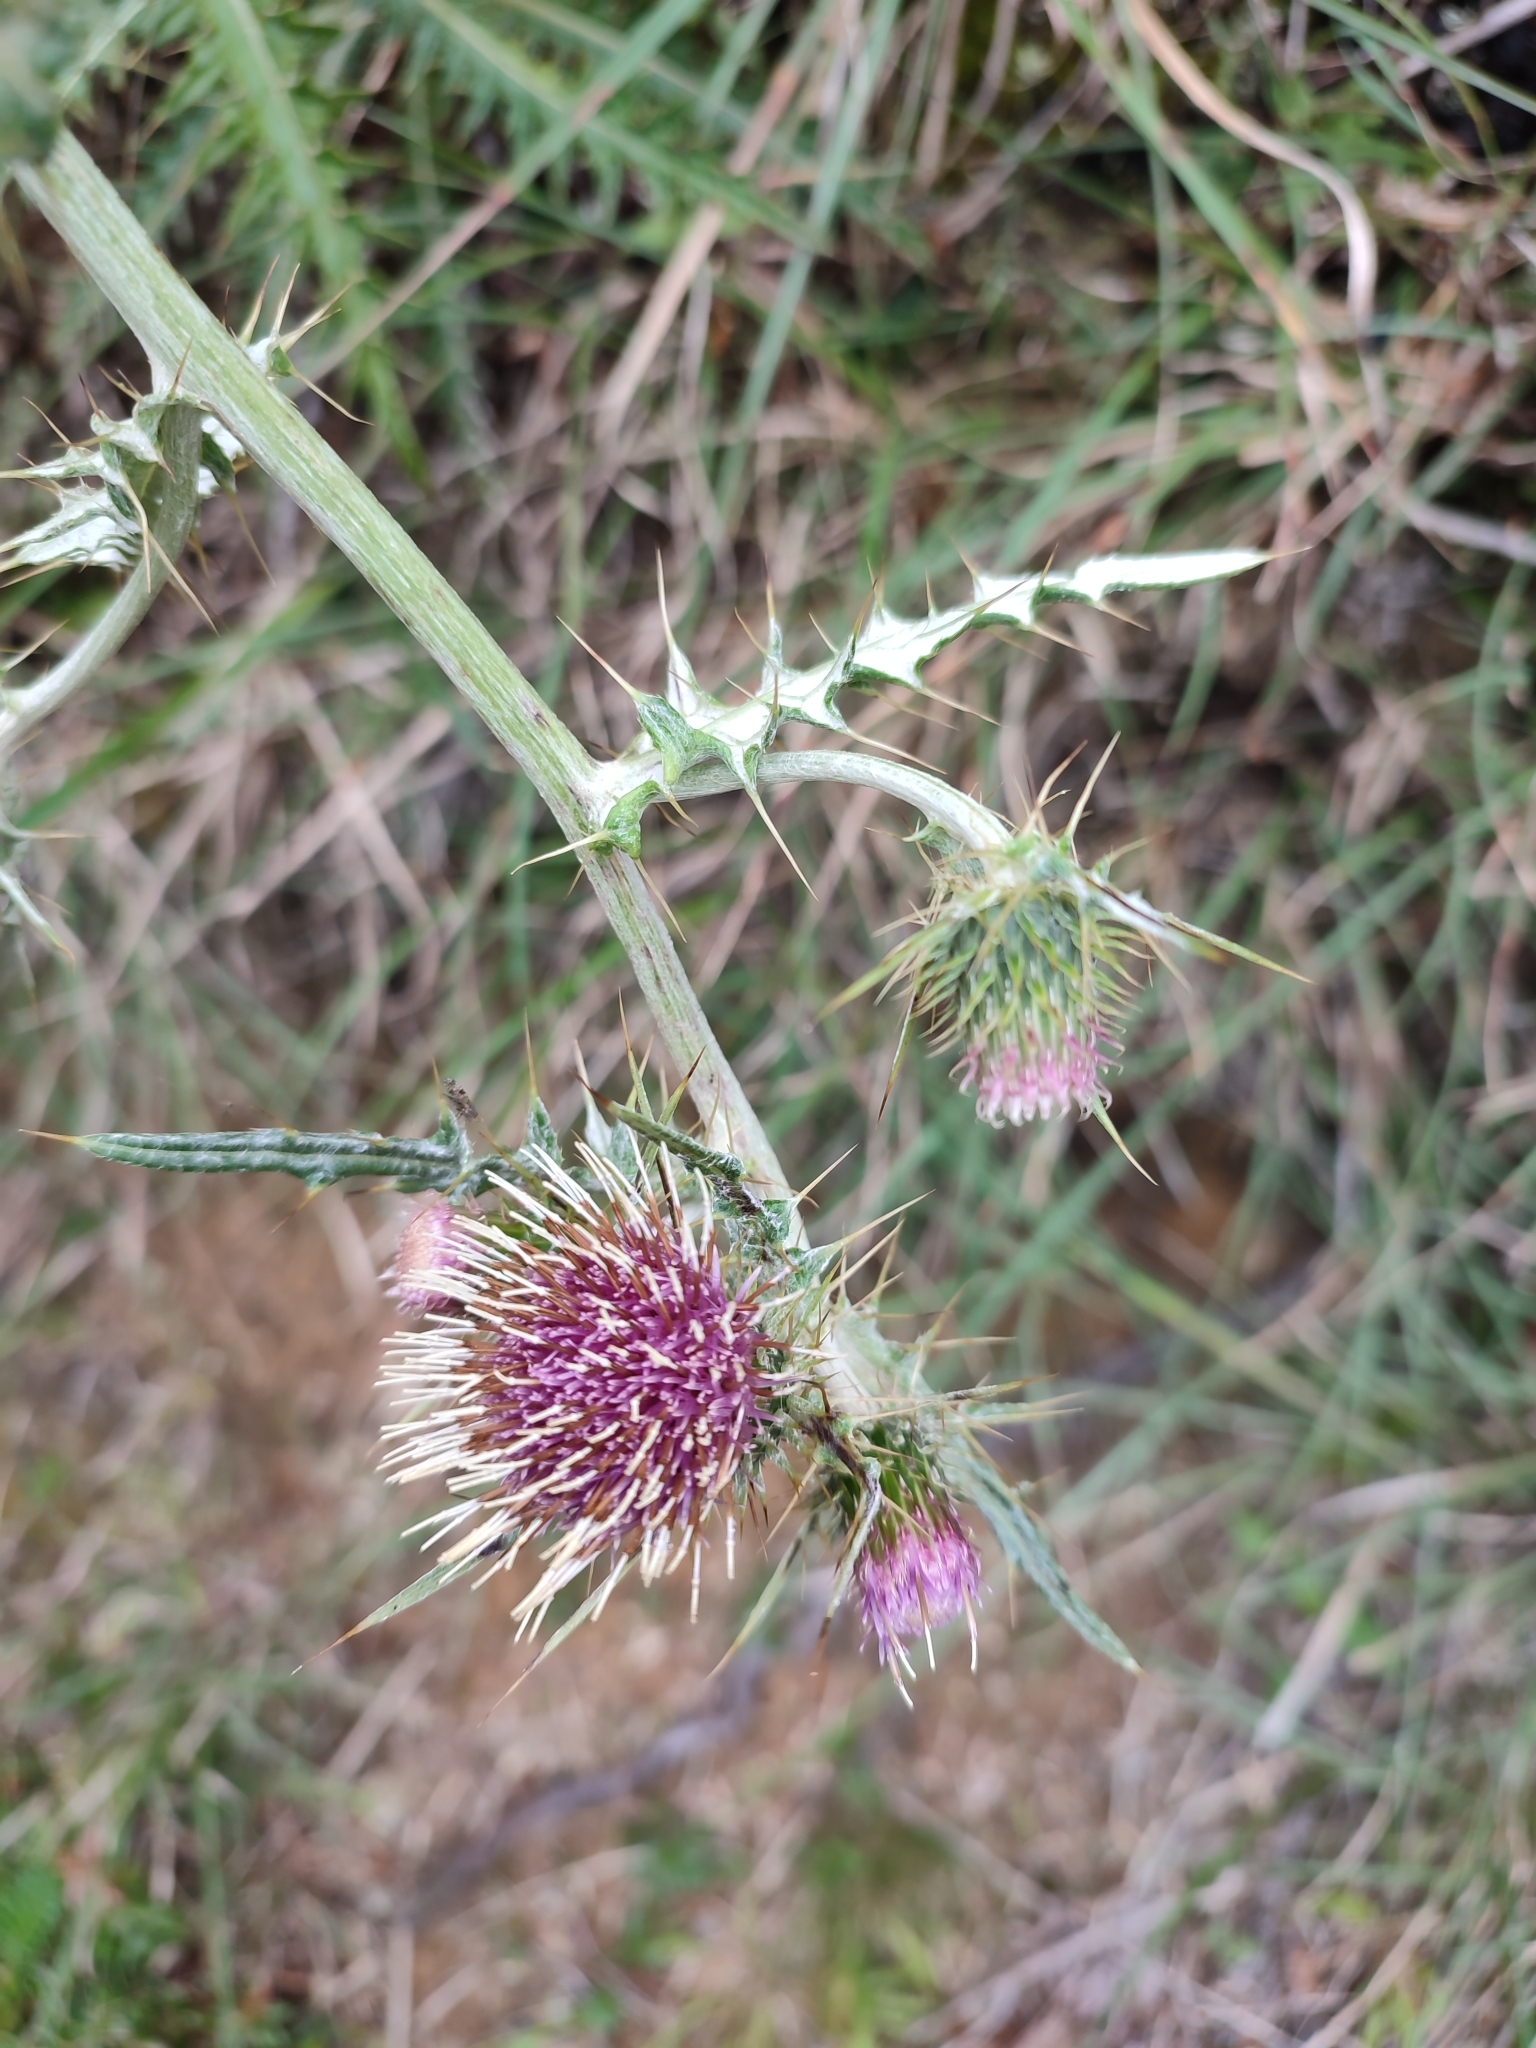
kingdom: Plantae
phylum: Tracheophyta
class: Magnoliopsida
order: Asterales
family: Asteraceae
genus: Cirsium
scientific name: Cirsium arisanense
